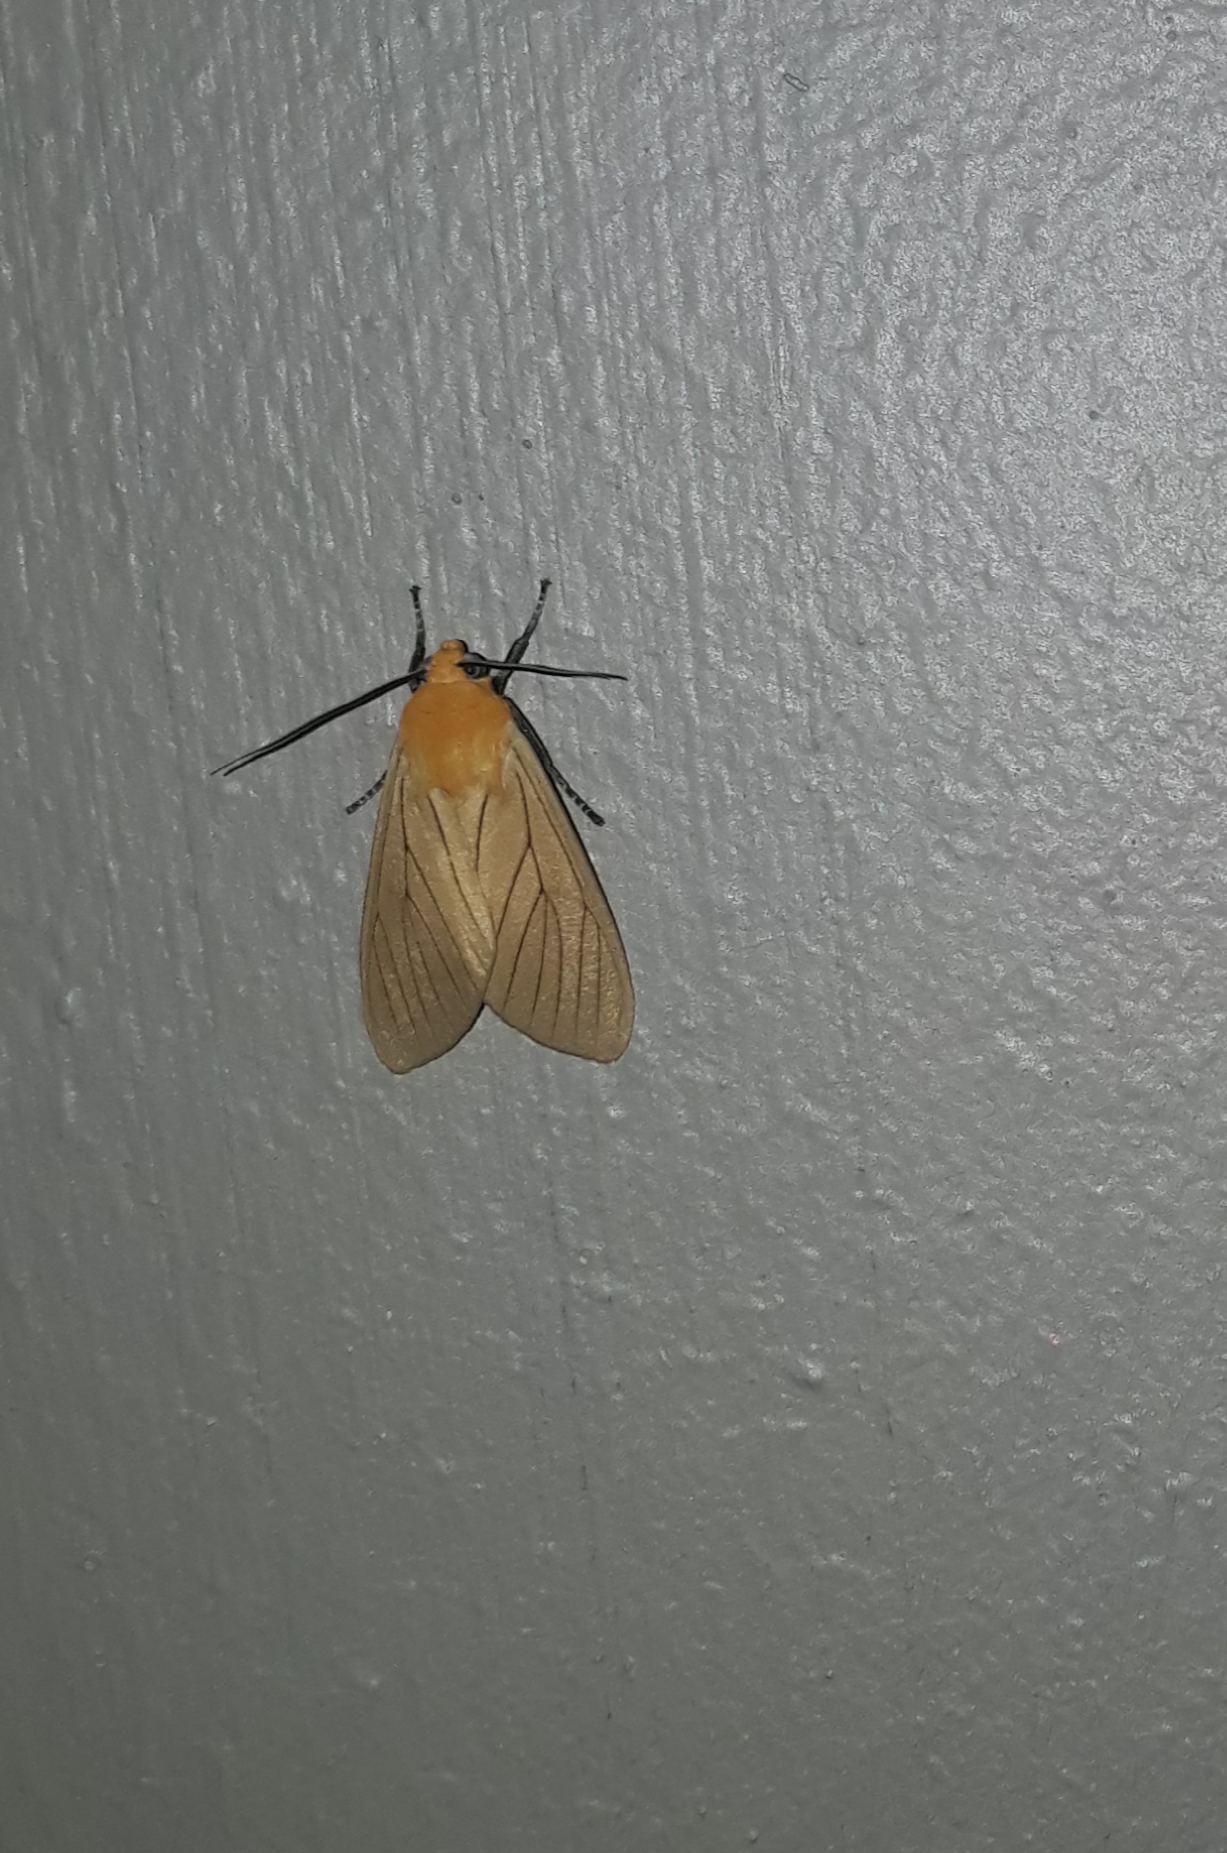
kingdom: Animalia
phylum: Arthropoda
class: Insecta
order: Lepidoptera
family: Erebidae
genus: Melese
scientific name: Melese
